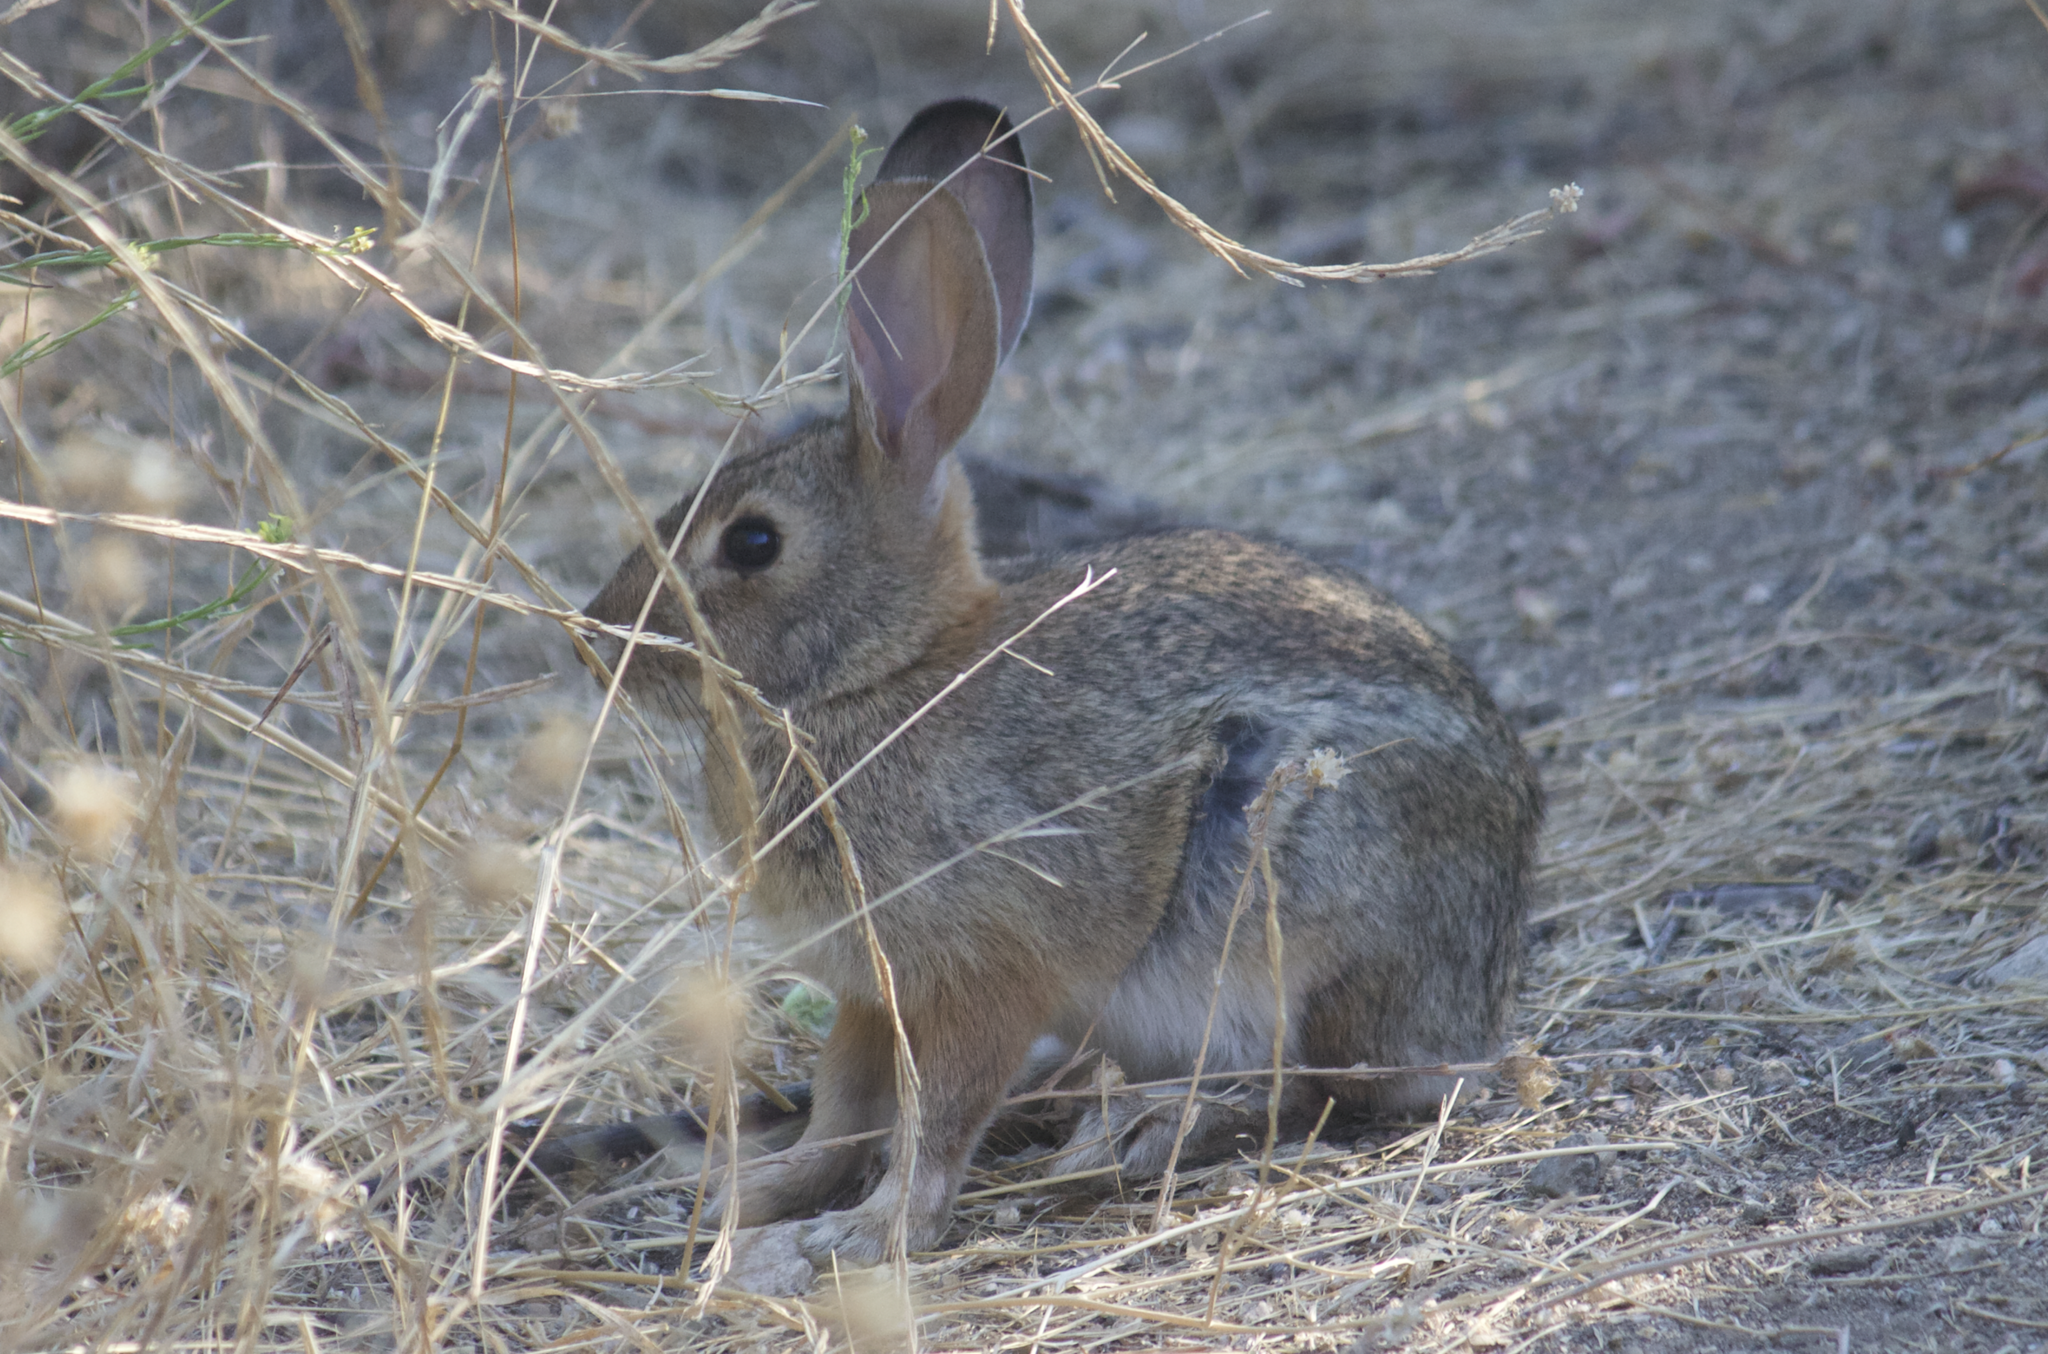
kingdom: Animalia
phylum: Chordata
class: Mammalia
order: Lagomorpha
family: Leporidae
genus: Sylvilagus
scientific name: Sylvilagus audubonii
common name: Desert cottontail
